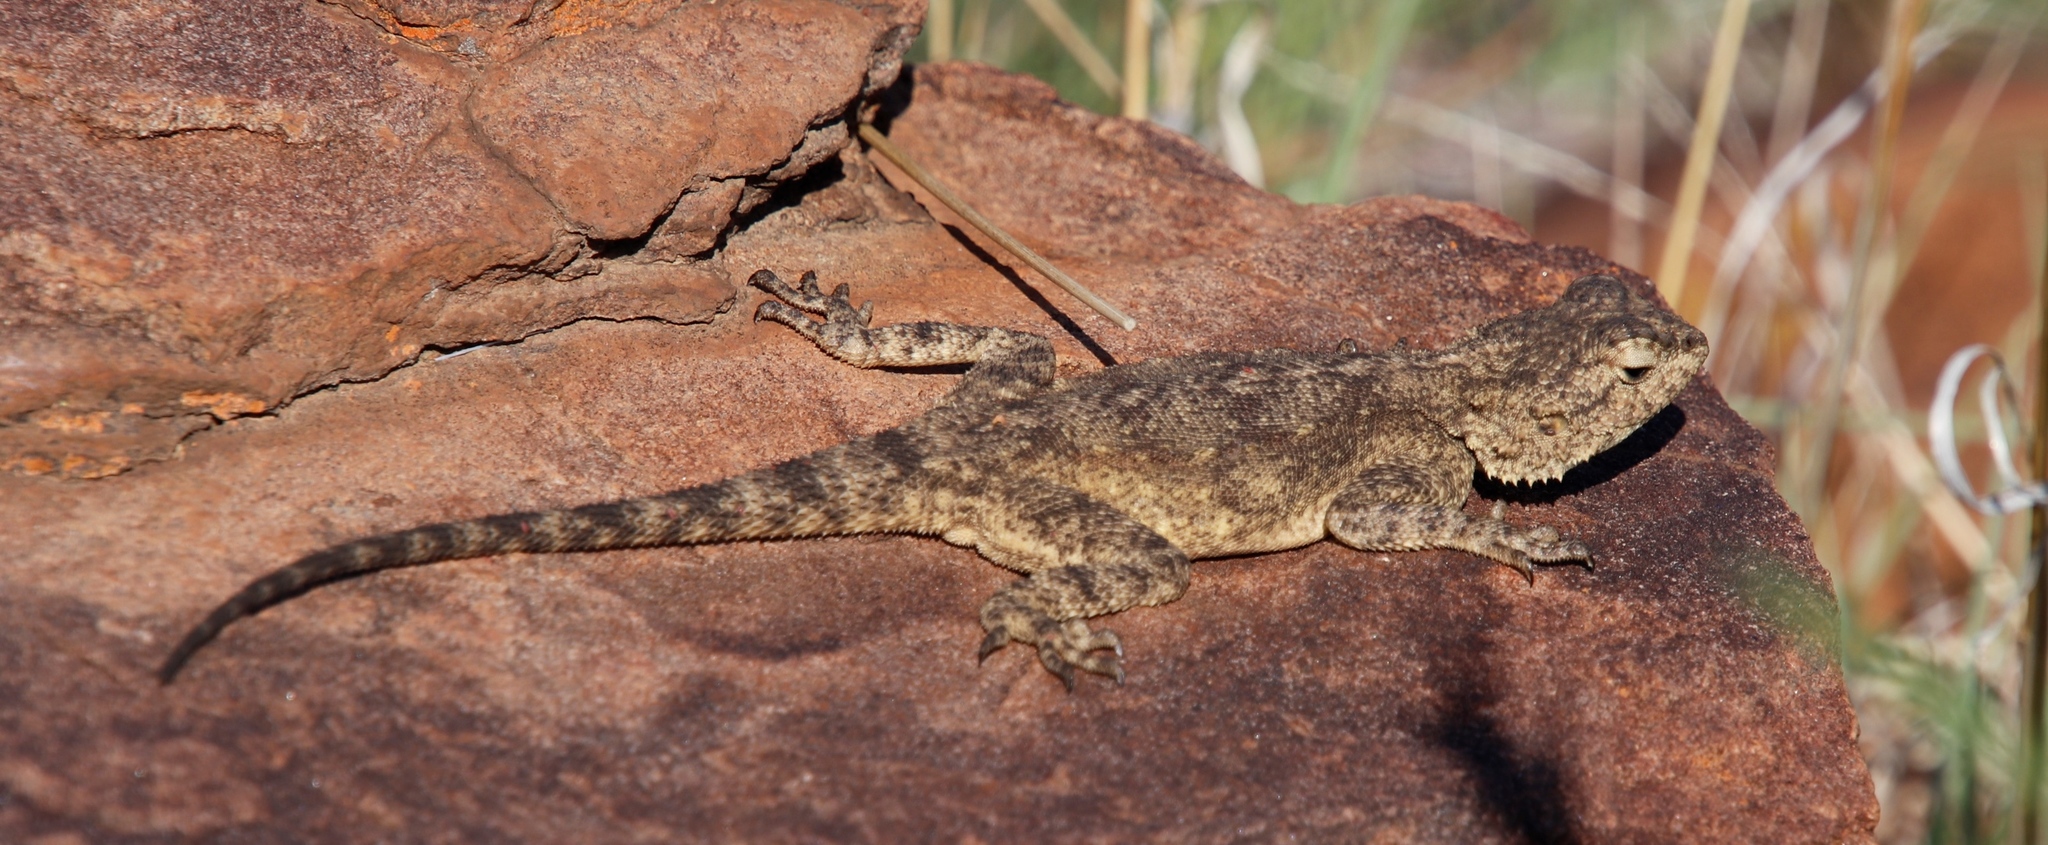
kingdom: Animalia
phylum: Chordata
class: Squamata
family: Agamidae
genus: Agama
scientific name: Agama atra
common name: Southern african rock agama
